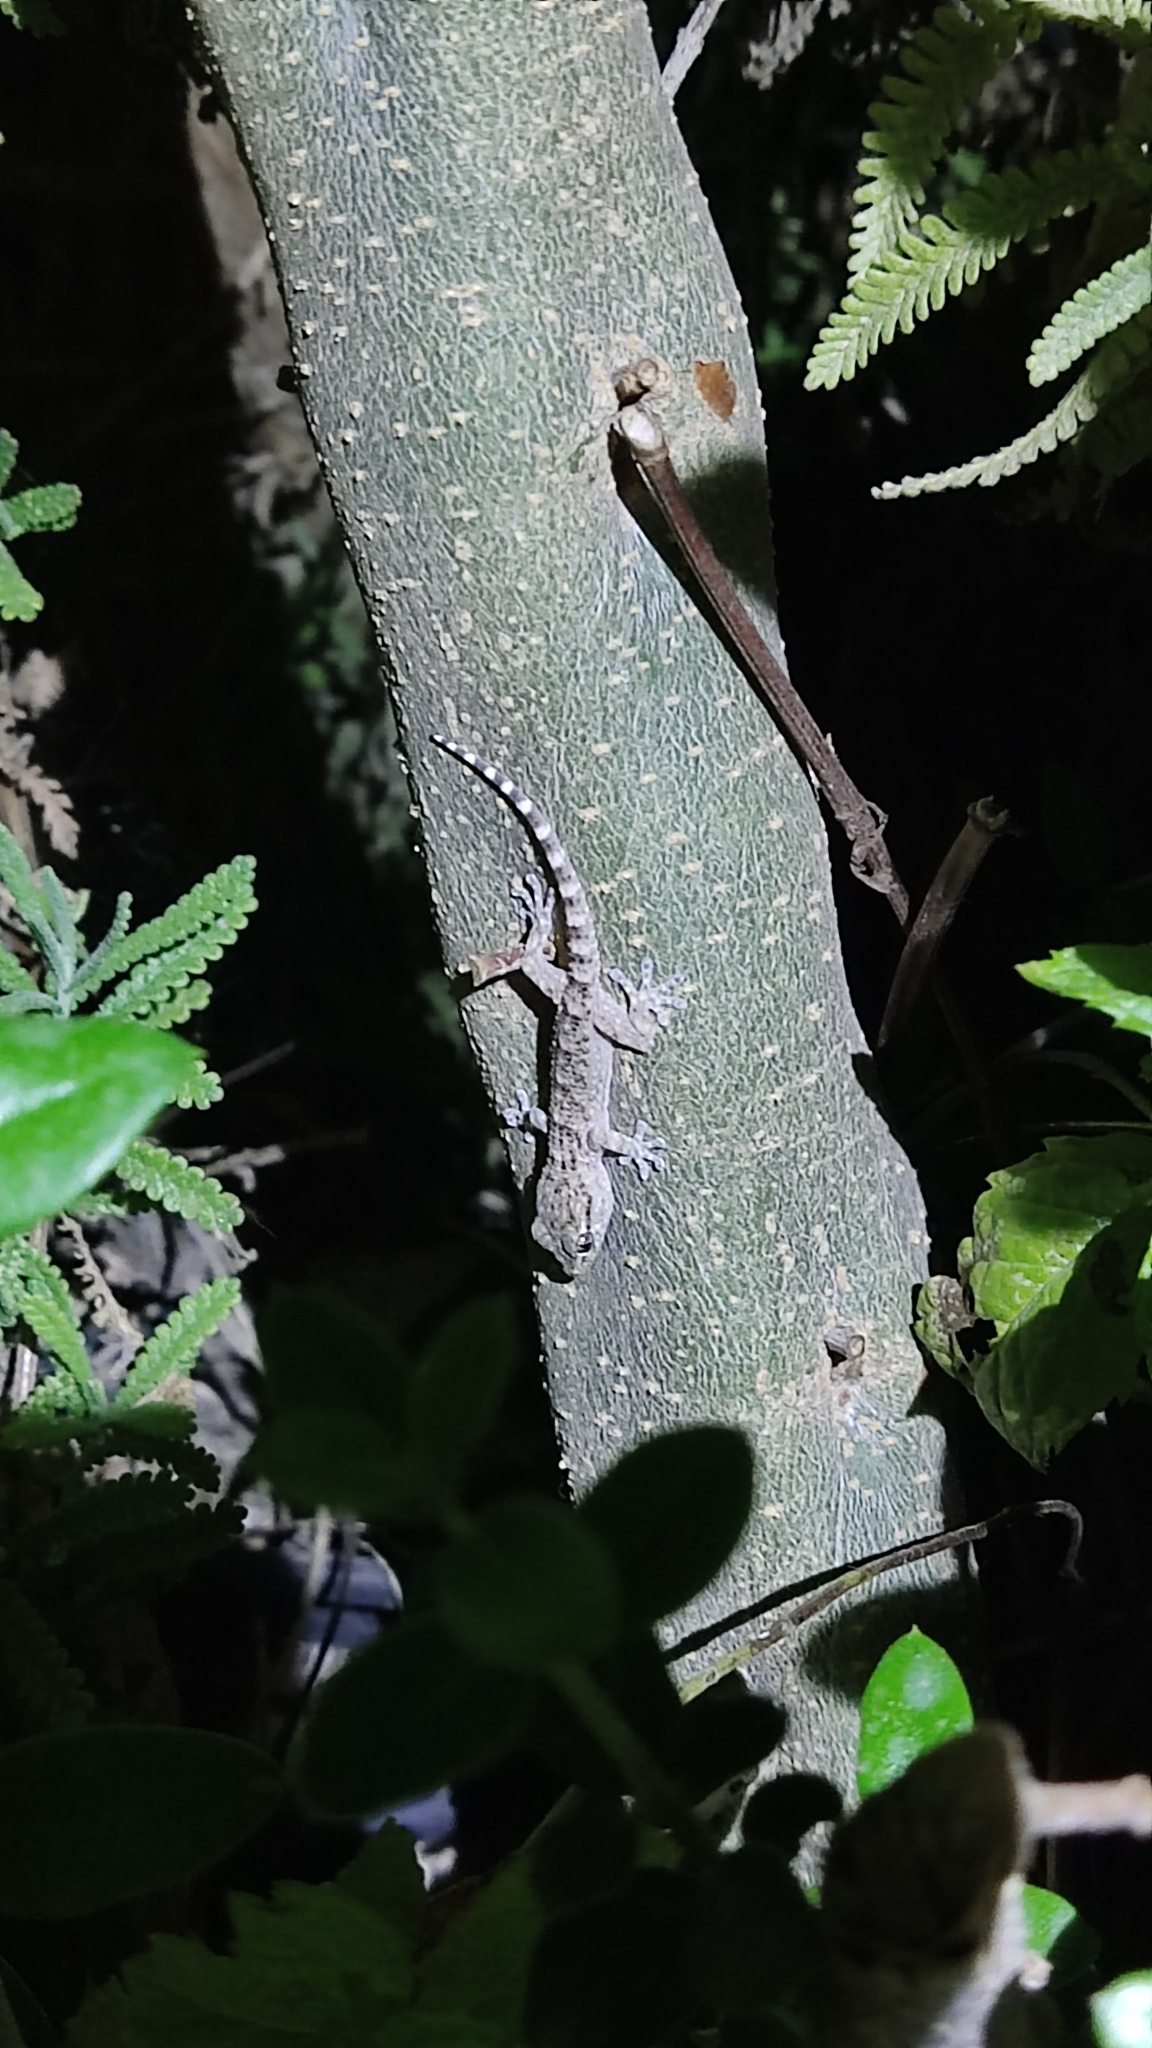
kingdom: Animalia
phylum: Chordata
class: Squamata
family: Phyllodactylidae
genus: Tarentola
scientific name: Tarentola mauritanica
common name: Moorish gecko
